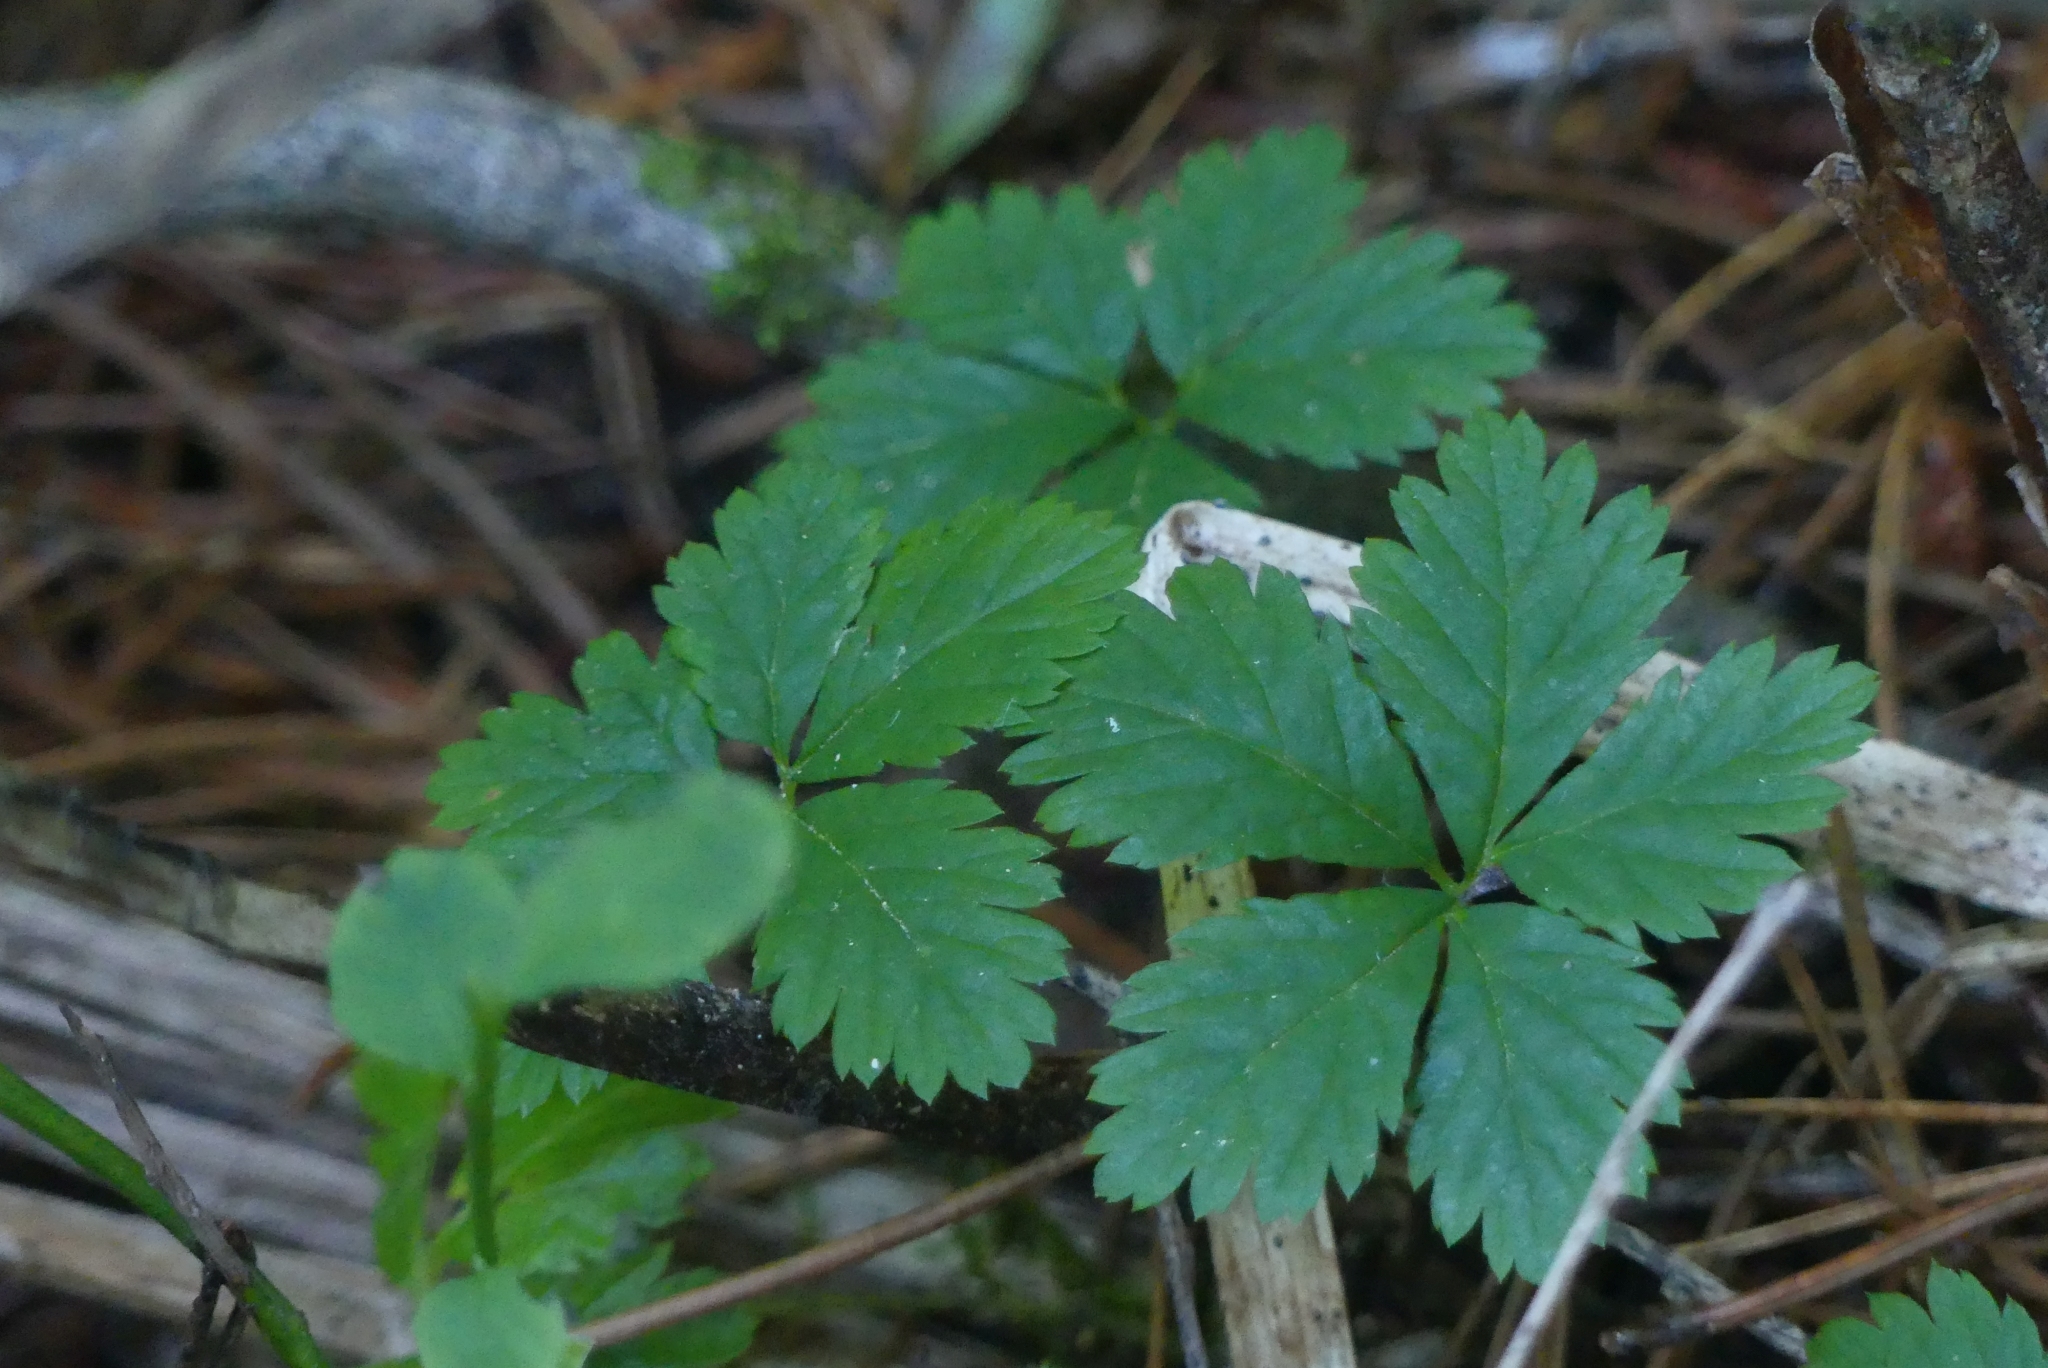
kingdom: Plantae
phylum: Tracheophyta
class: Magnoliopsida
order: Rosales
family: Rosaceae
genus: Rubus
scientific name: Rubus pedatus
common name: Creeping raspberry
